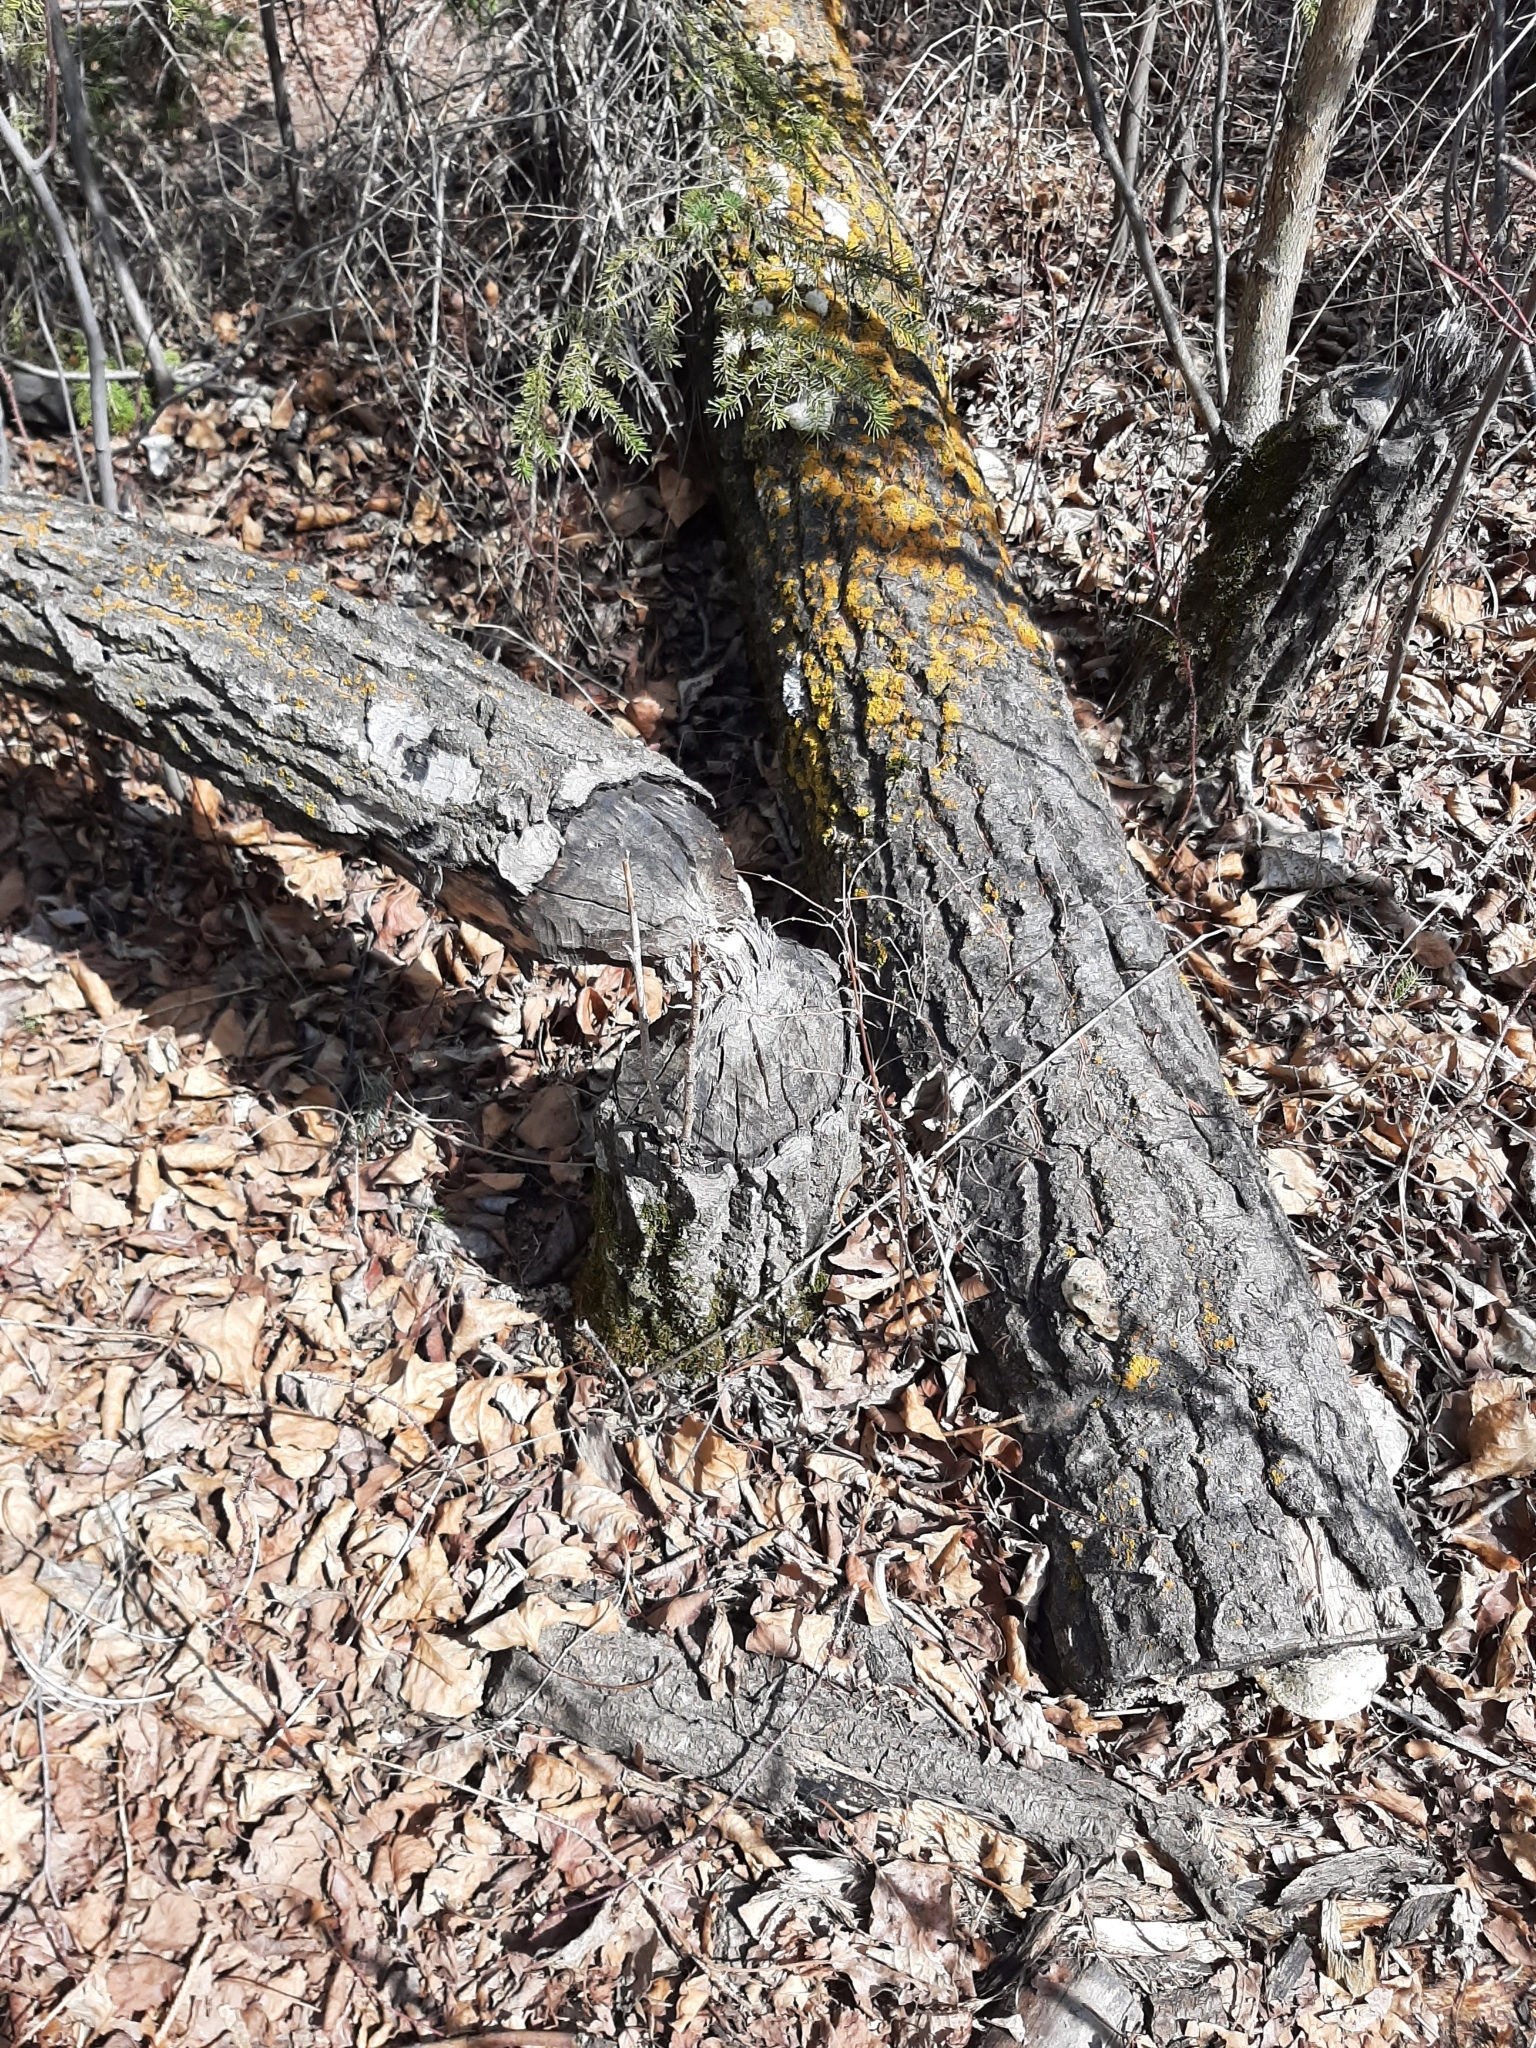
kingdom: Animalia
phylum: Chordata
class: Mammalia
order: Rodentia
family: Castoridae
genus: Castor
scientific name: Castor canadensis
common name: American beaver
